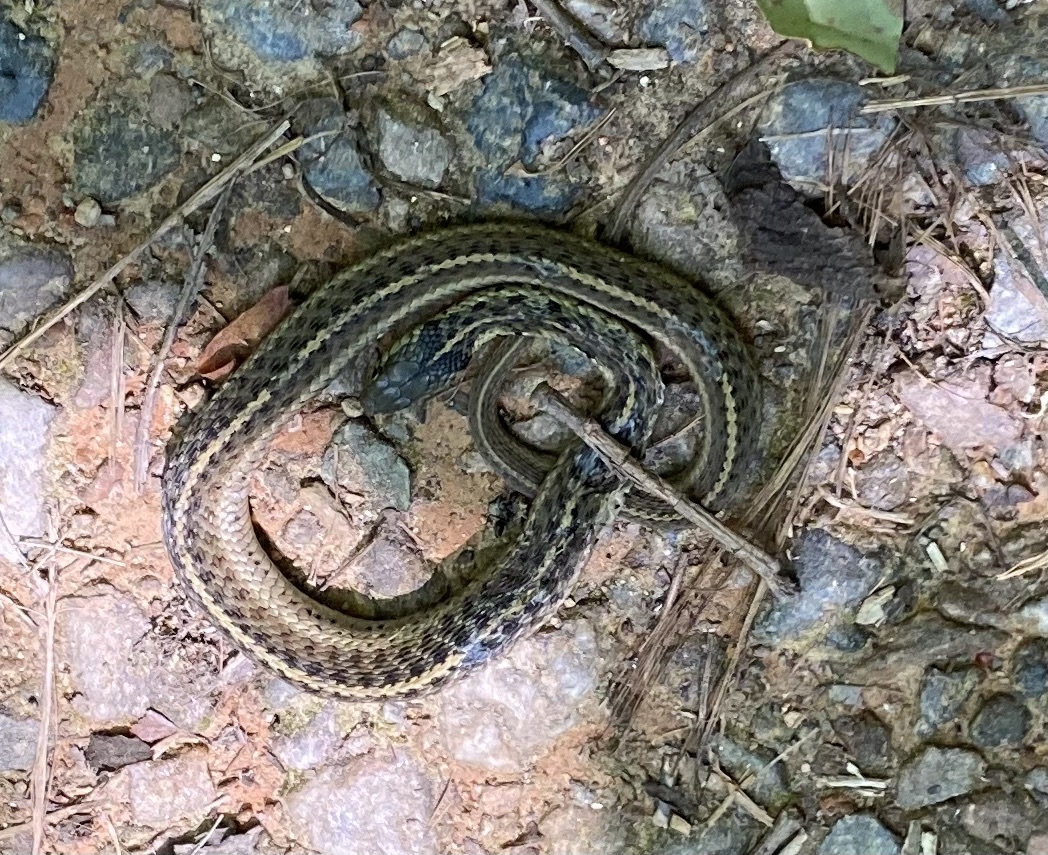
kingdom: Animalia
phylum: Chordata
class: Squamata
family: Colubridae
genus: Thamnophis
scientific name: Thamnophis sirtalis
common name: Common garter snake
